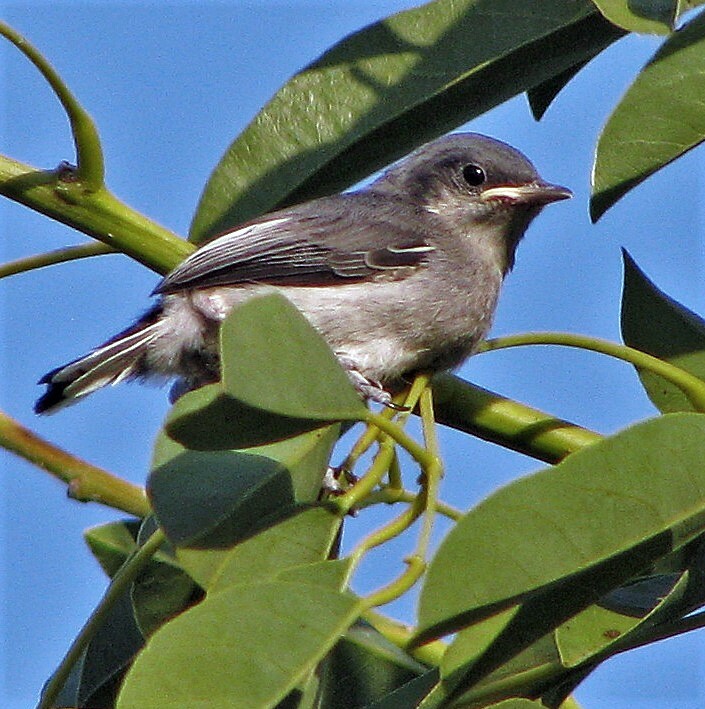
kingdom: Animalia
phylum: Chordata
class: Aves
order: Passeriformes
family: Polioptilidae
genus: Polioptila
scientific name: Polioptila dumicola
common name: Masked gnatcatcher
